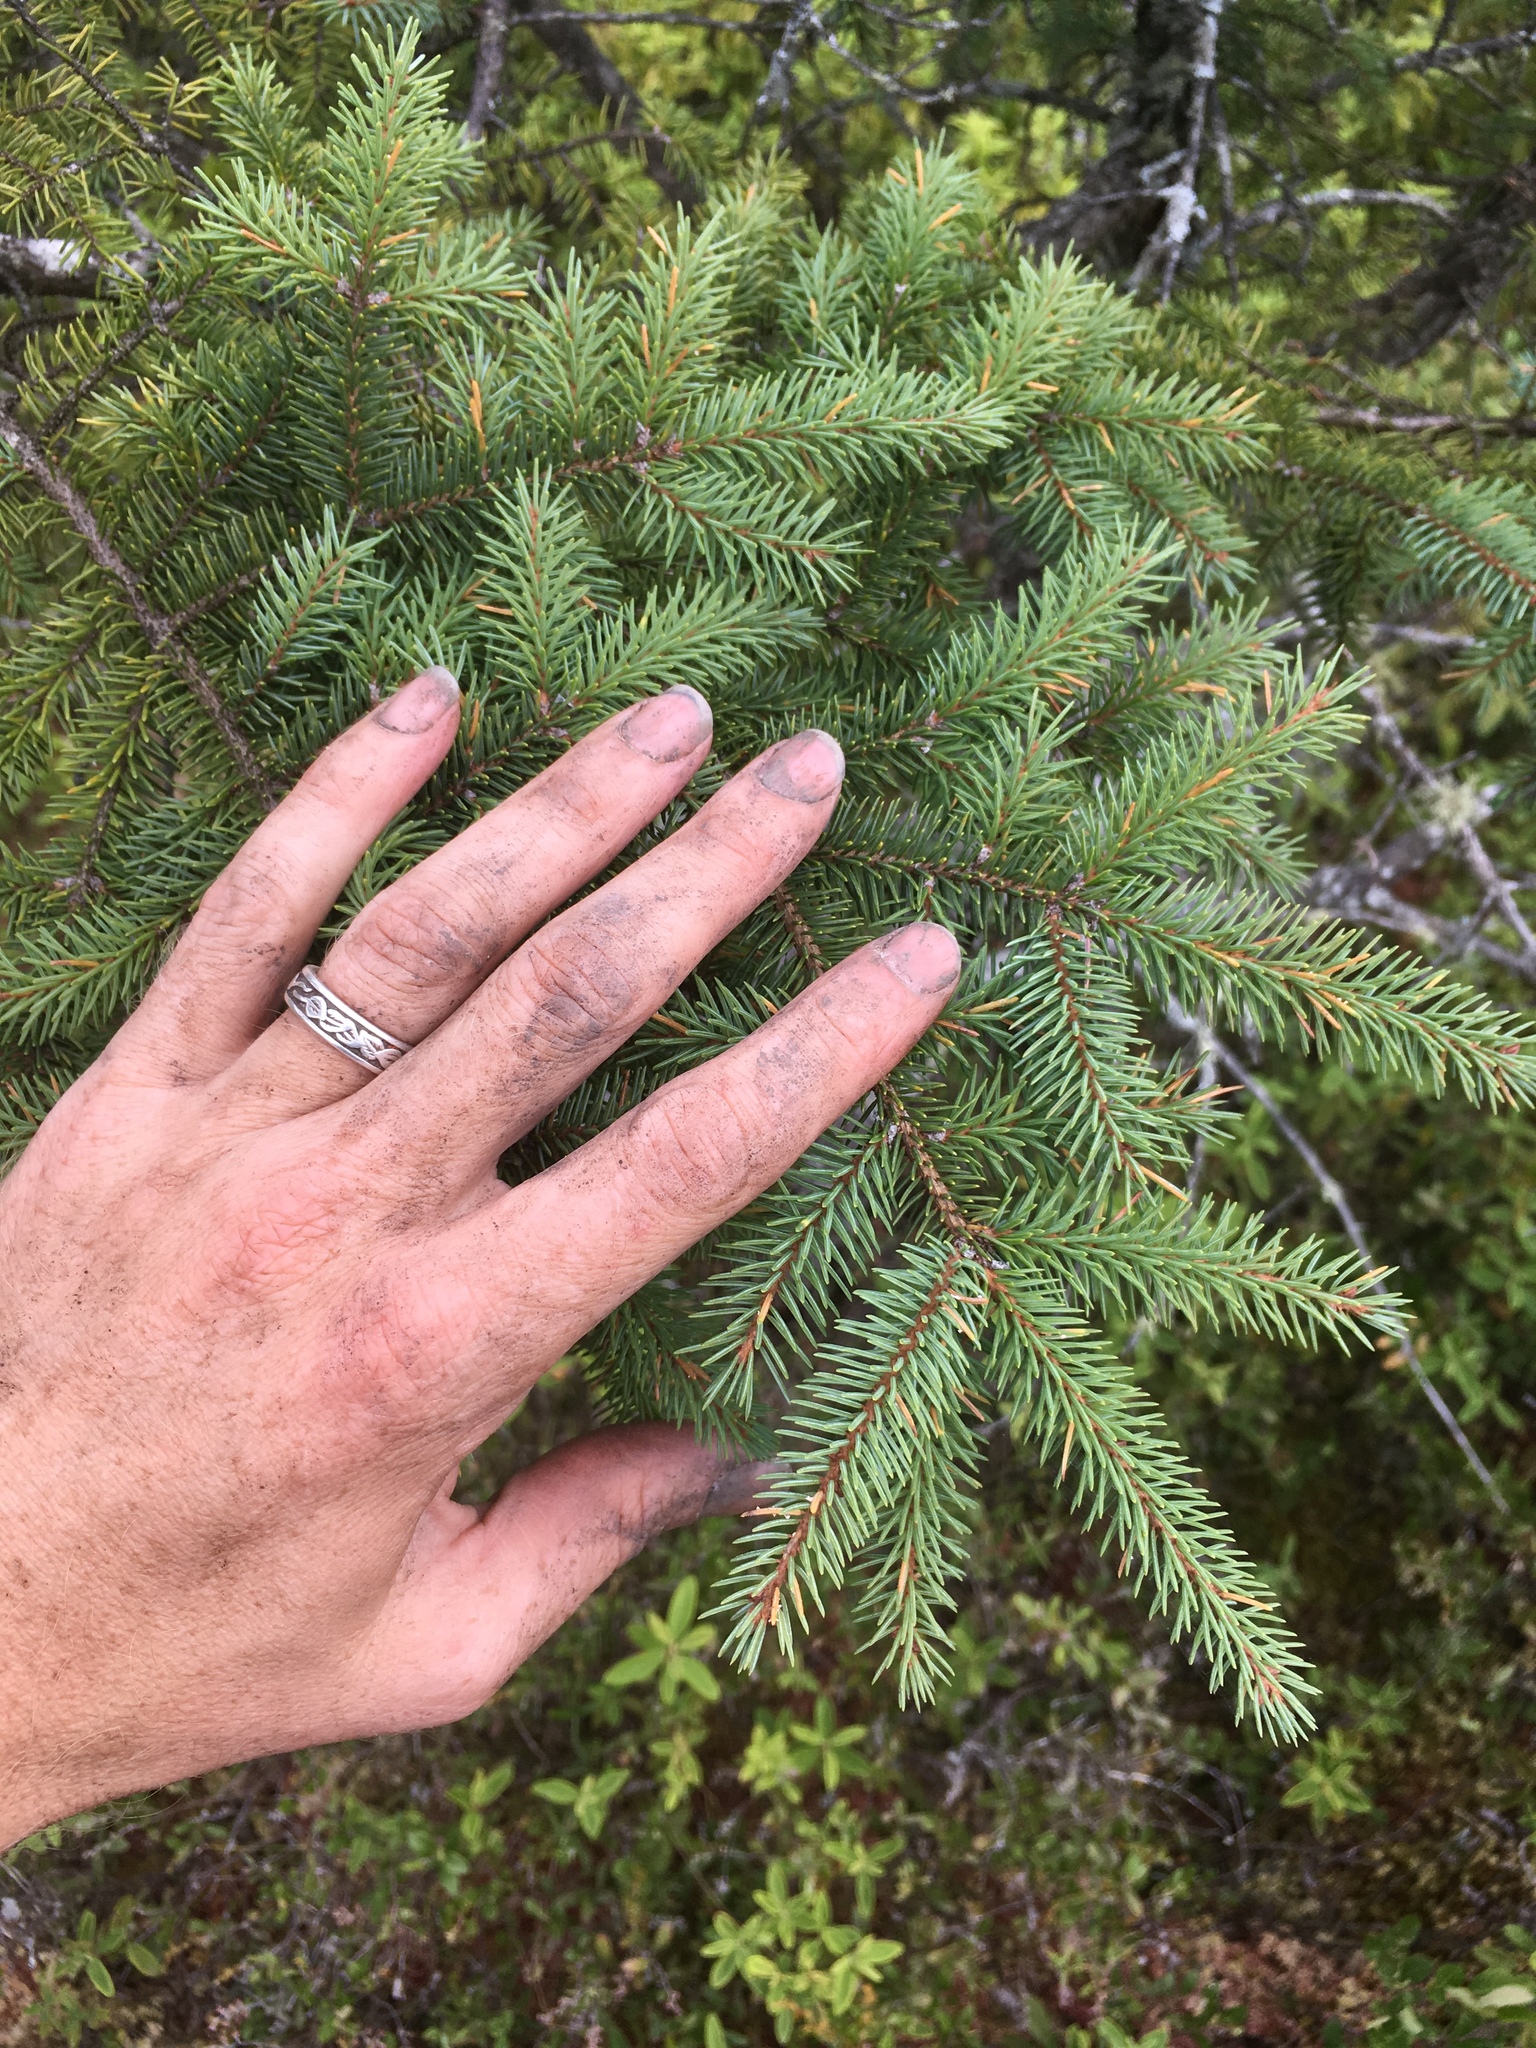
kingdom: Plantae
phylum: Tracheophyta
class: Pinopsida
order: Pinales
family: Pinaceae
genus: Picea
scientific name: Picea mariana
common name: Black spruce
